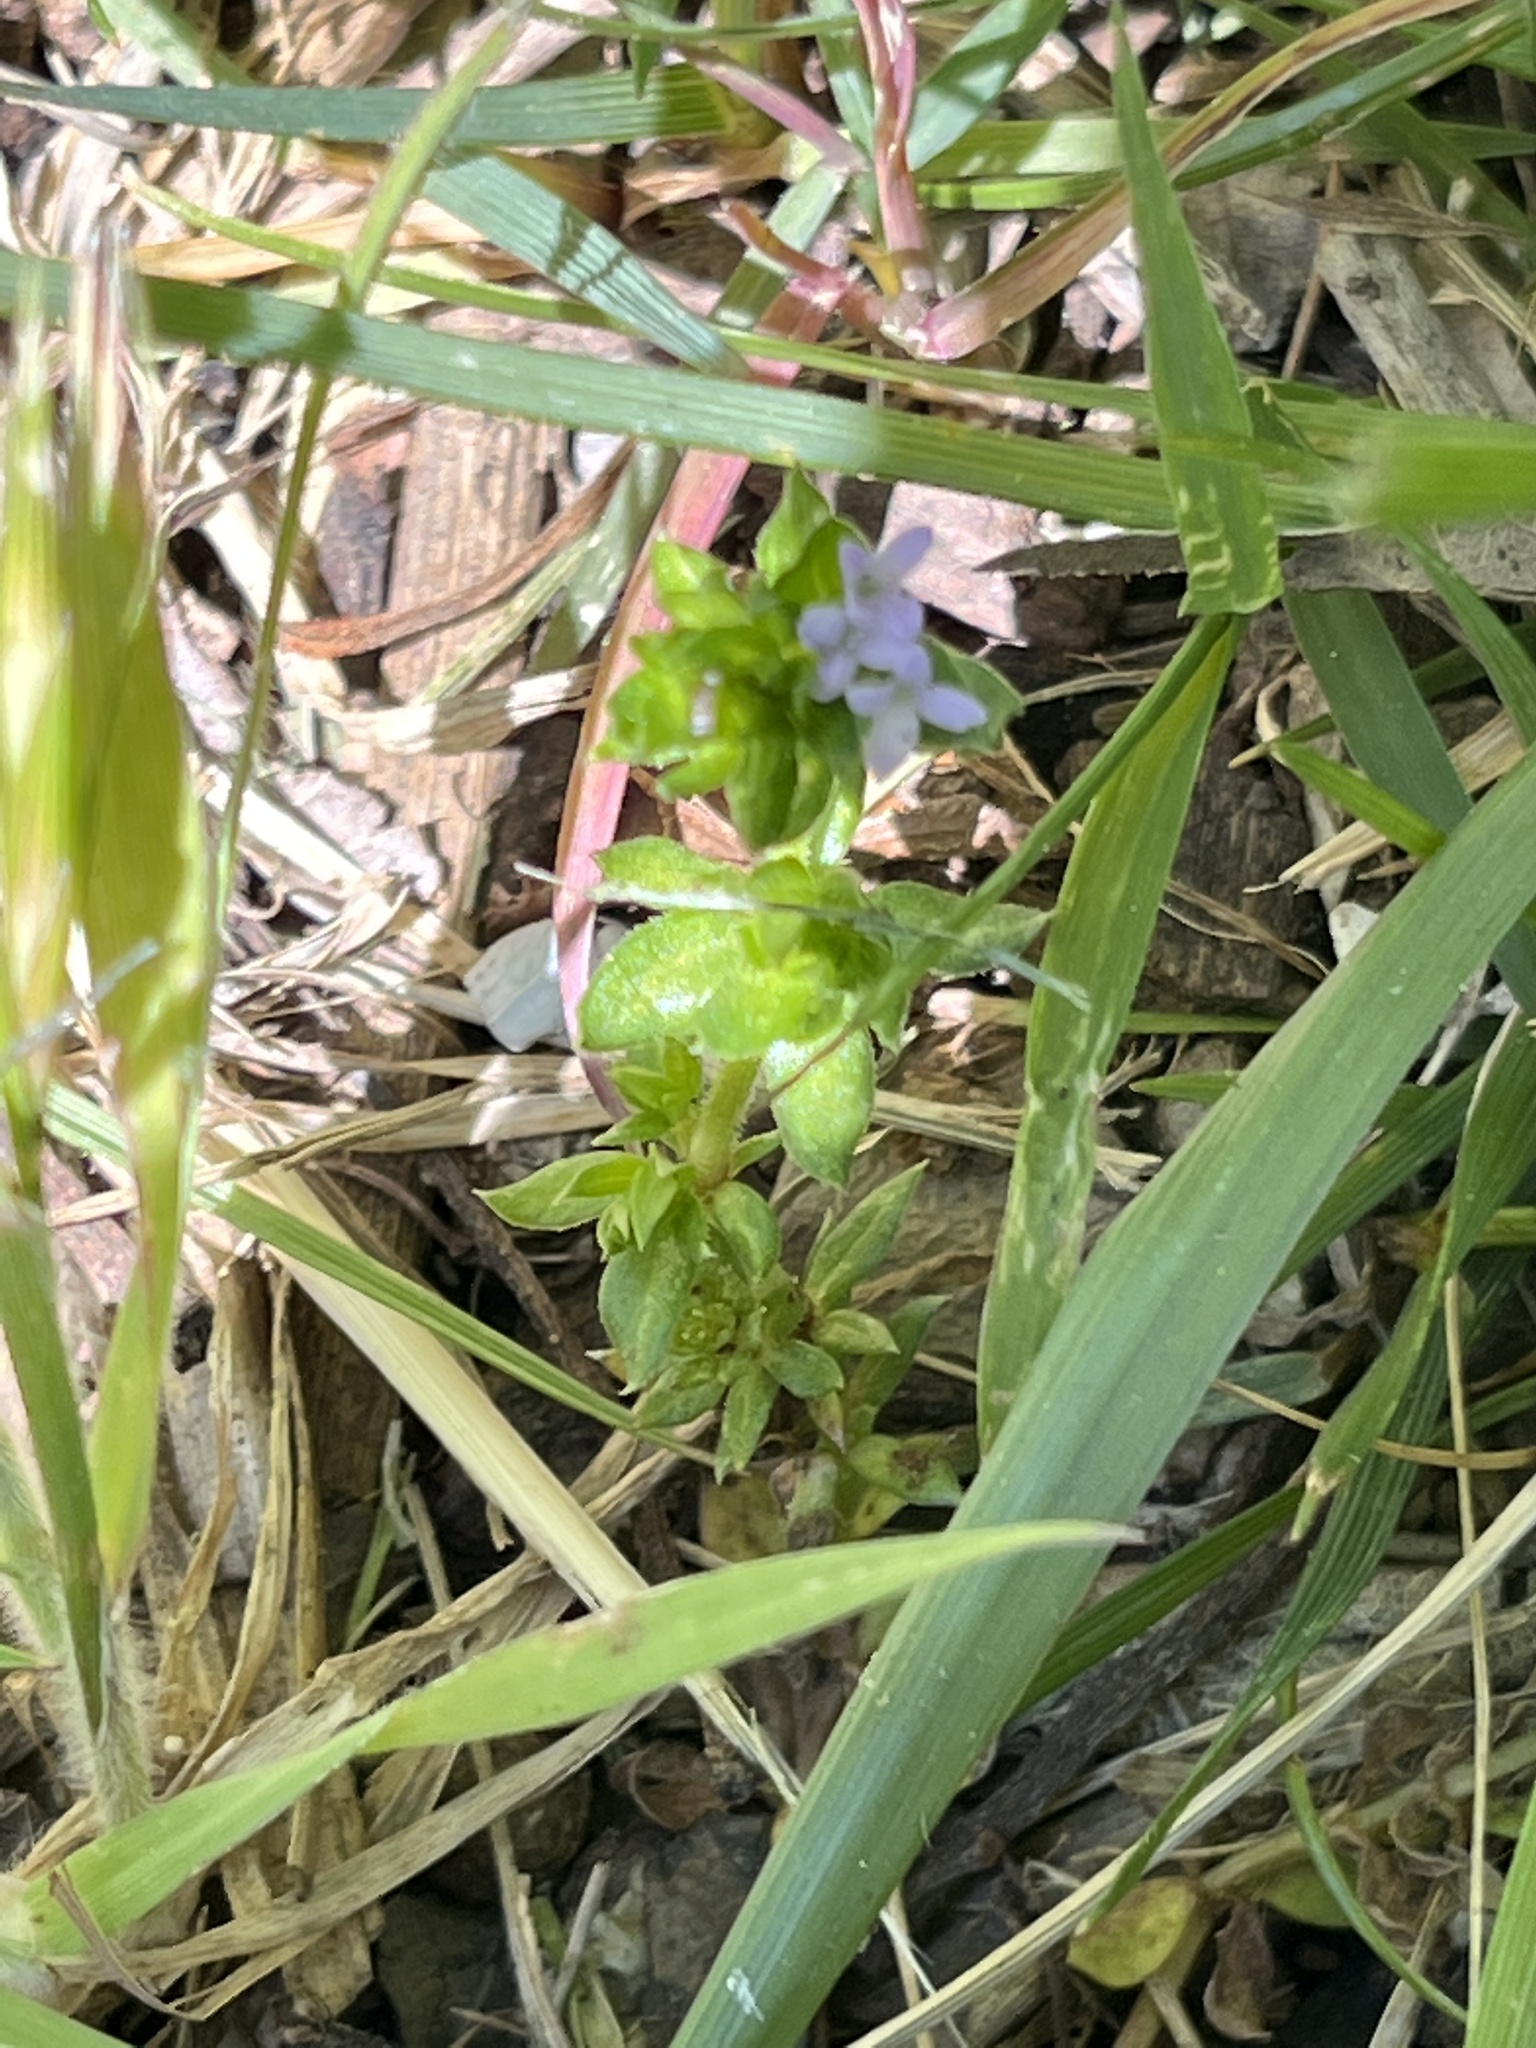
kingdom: Plantae
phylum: Tracheophyta
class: Magnoliopsida
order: Gentianales
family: Rubiaceae
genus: Sherardia
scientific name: Sherardia arvensis
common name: Field madder
